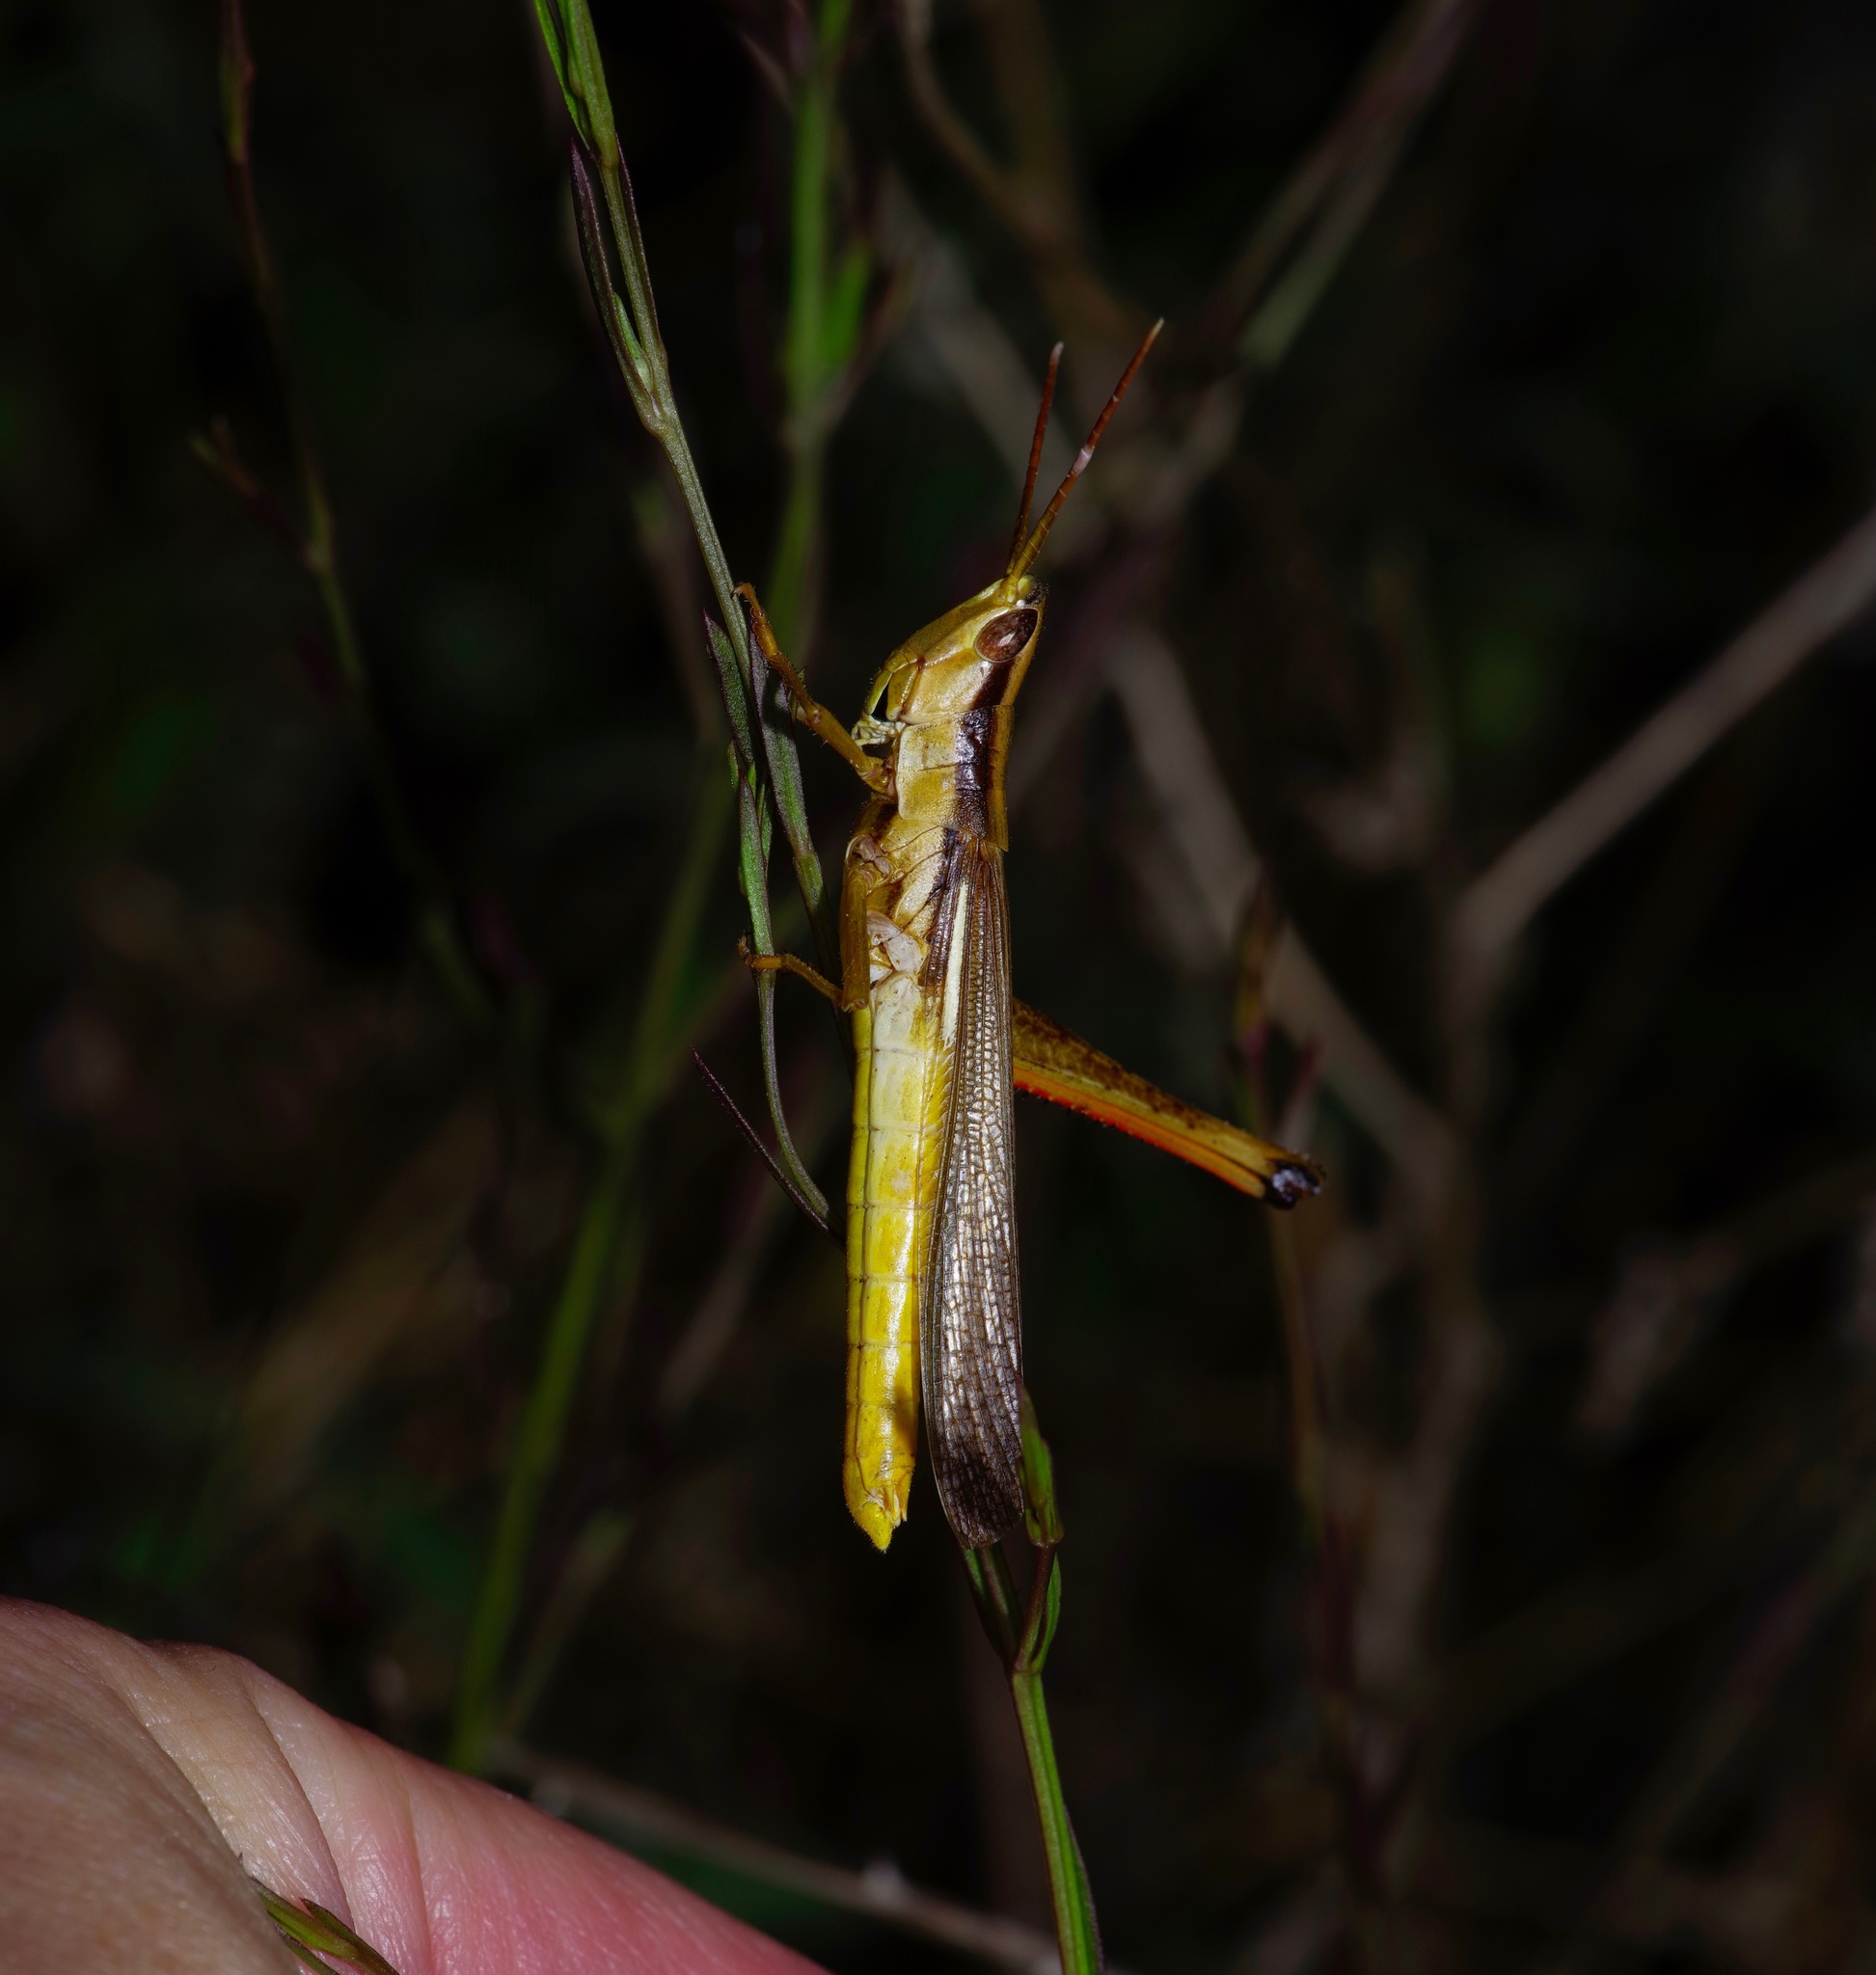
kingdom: Animalia
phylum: Arthropoda
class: Insecta
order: Orthoptera
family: Acrididae
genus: Mermiria
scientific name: Mermiria bivittata
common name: Two-striped mermiria grasshopper
